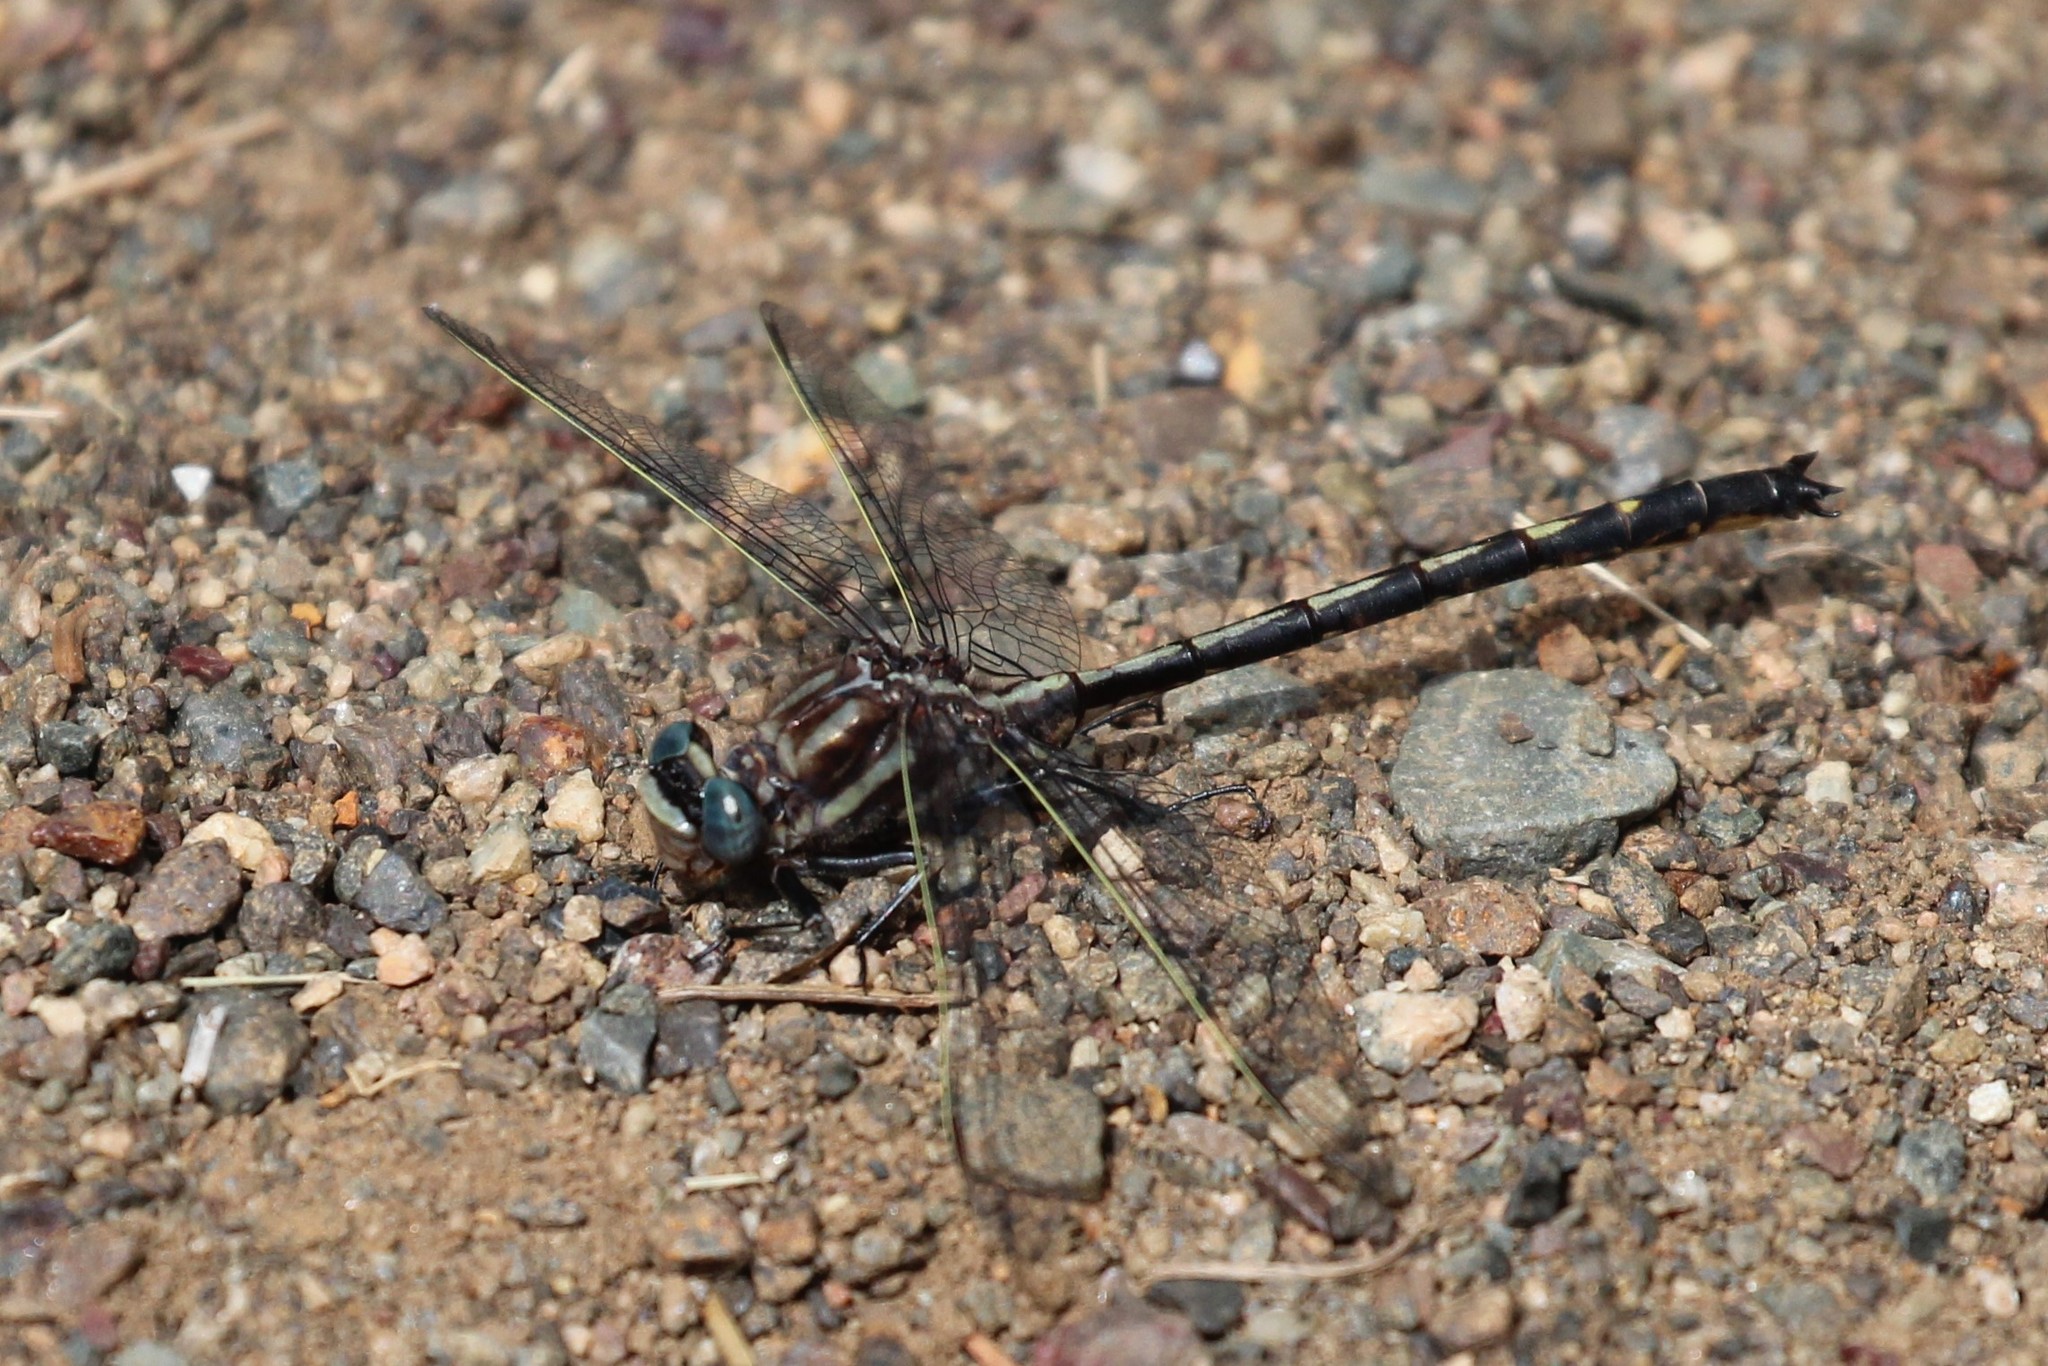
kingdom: Animalia
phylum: Arthropoda
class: Insecta
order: Odonata
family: Gomphidae
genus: Phanogomphus
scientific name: Phanogomphus spicatus
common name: Dusky clubtail
